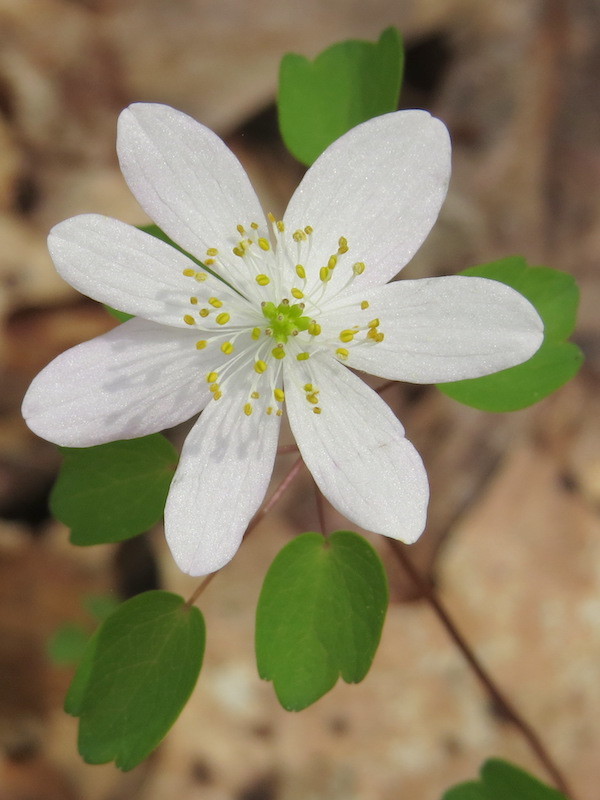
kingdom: Plantae
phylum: Tracheophyta
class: Magnoliopsida
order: Ranunculales
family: Ranunculaceae
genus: Thalictrum
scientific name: Thalictrum thalictroides
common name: Rue-anemone
